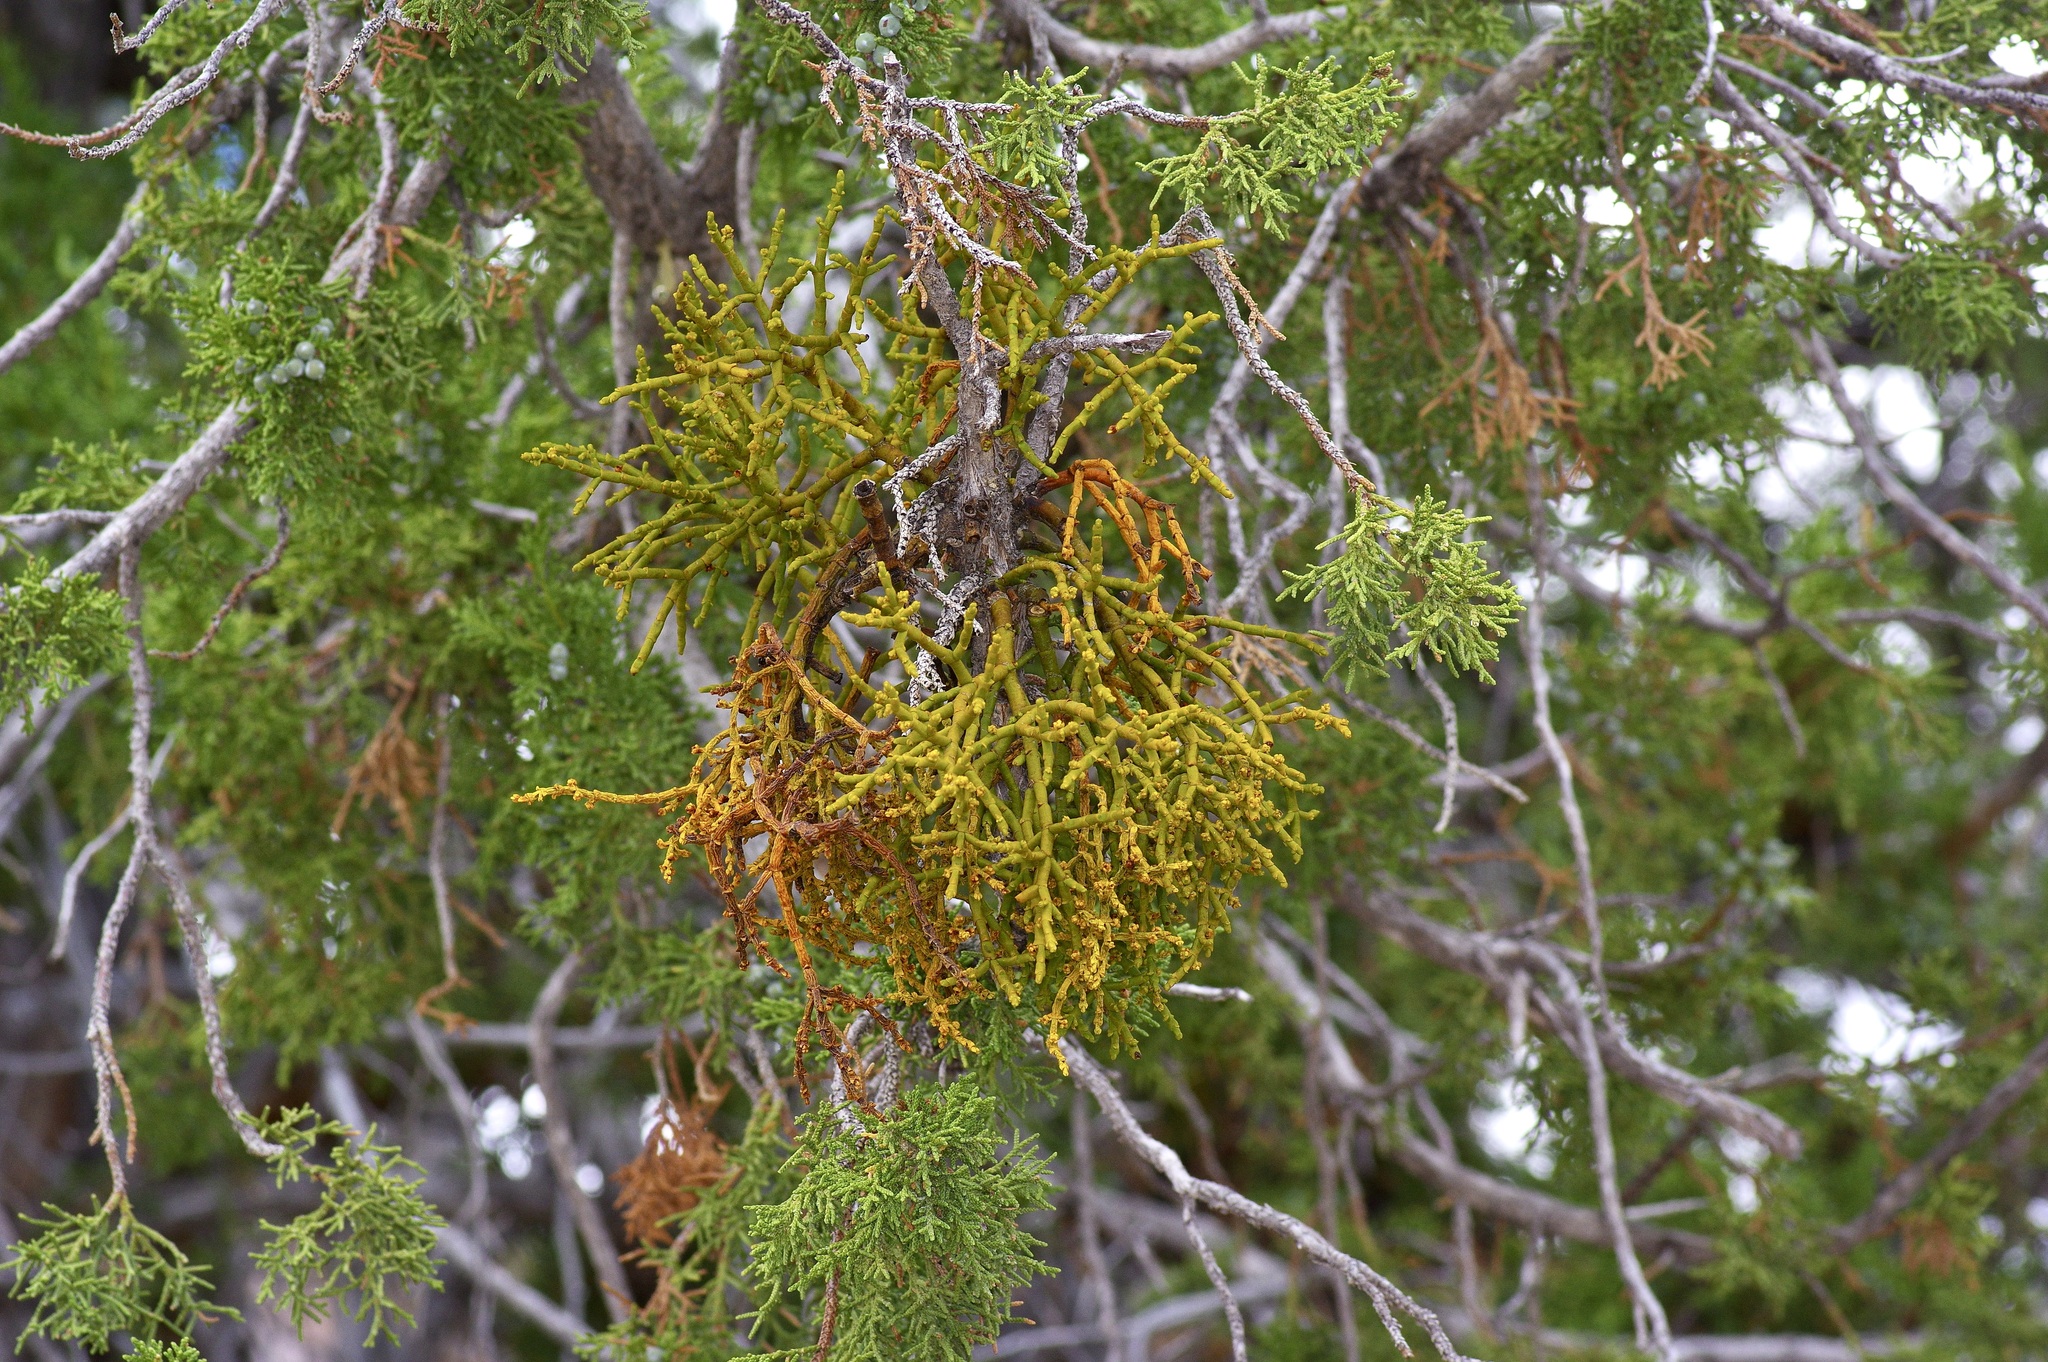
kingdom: Plantae
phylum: Tracheophyta
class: Magnoliopsida
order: Santalales
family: Viscaceae
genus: Phoradendron
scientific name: Phoradendron juniperinum
